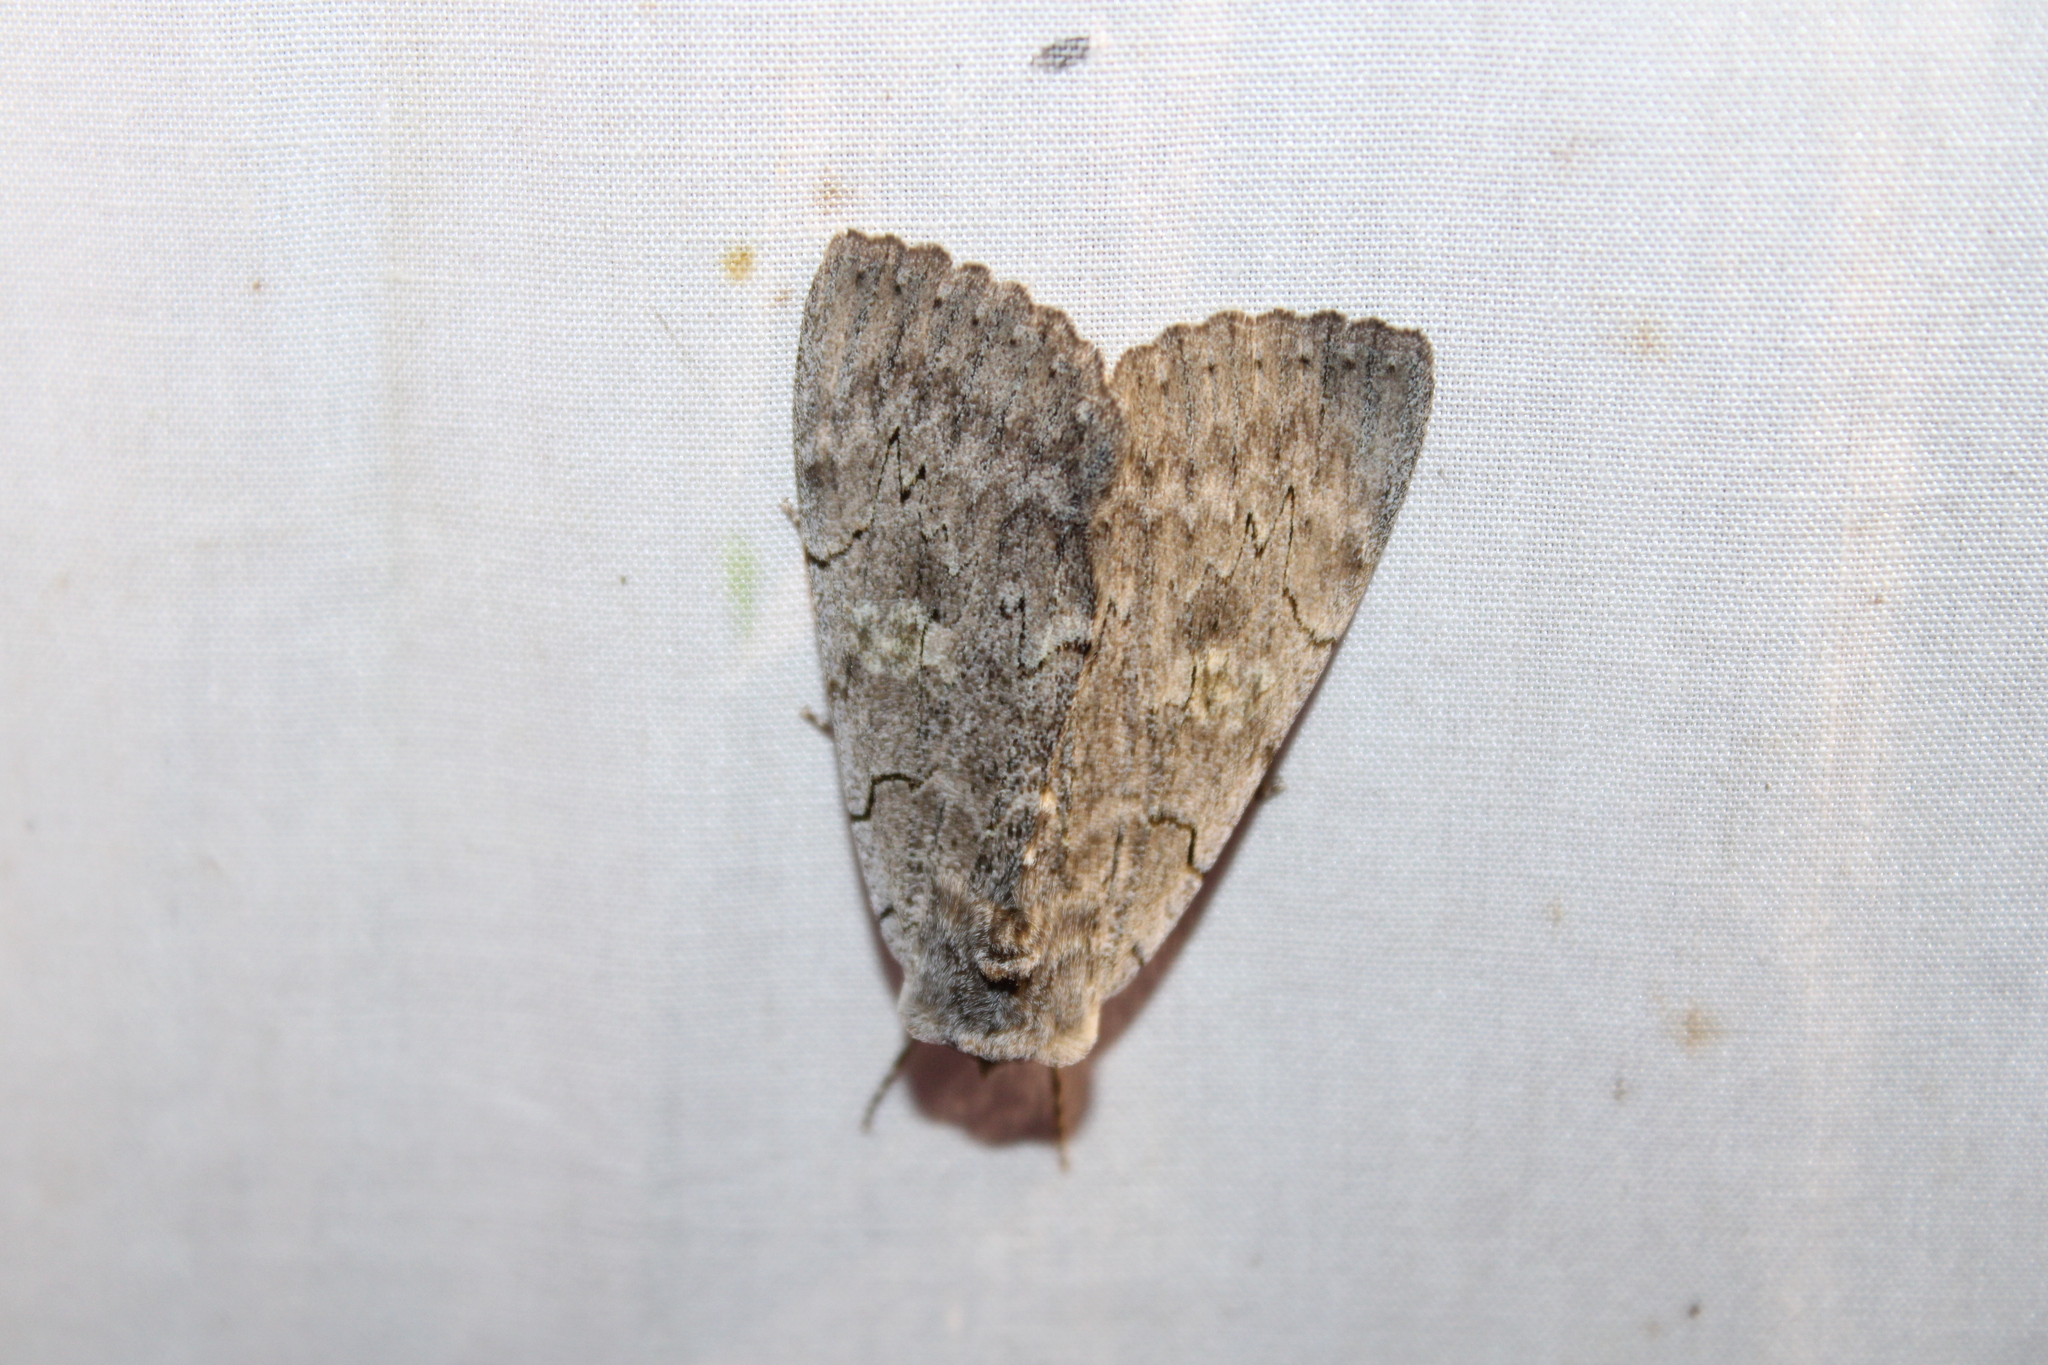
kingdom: Animalia
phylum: Arthropoda
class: Insecta
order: Lepidoptera
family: Erebidae
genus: Catocala
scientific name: Catocala concumbens
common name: Pink underwing
